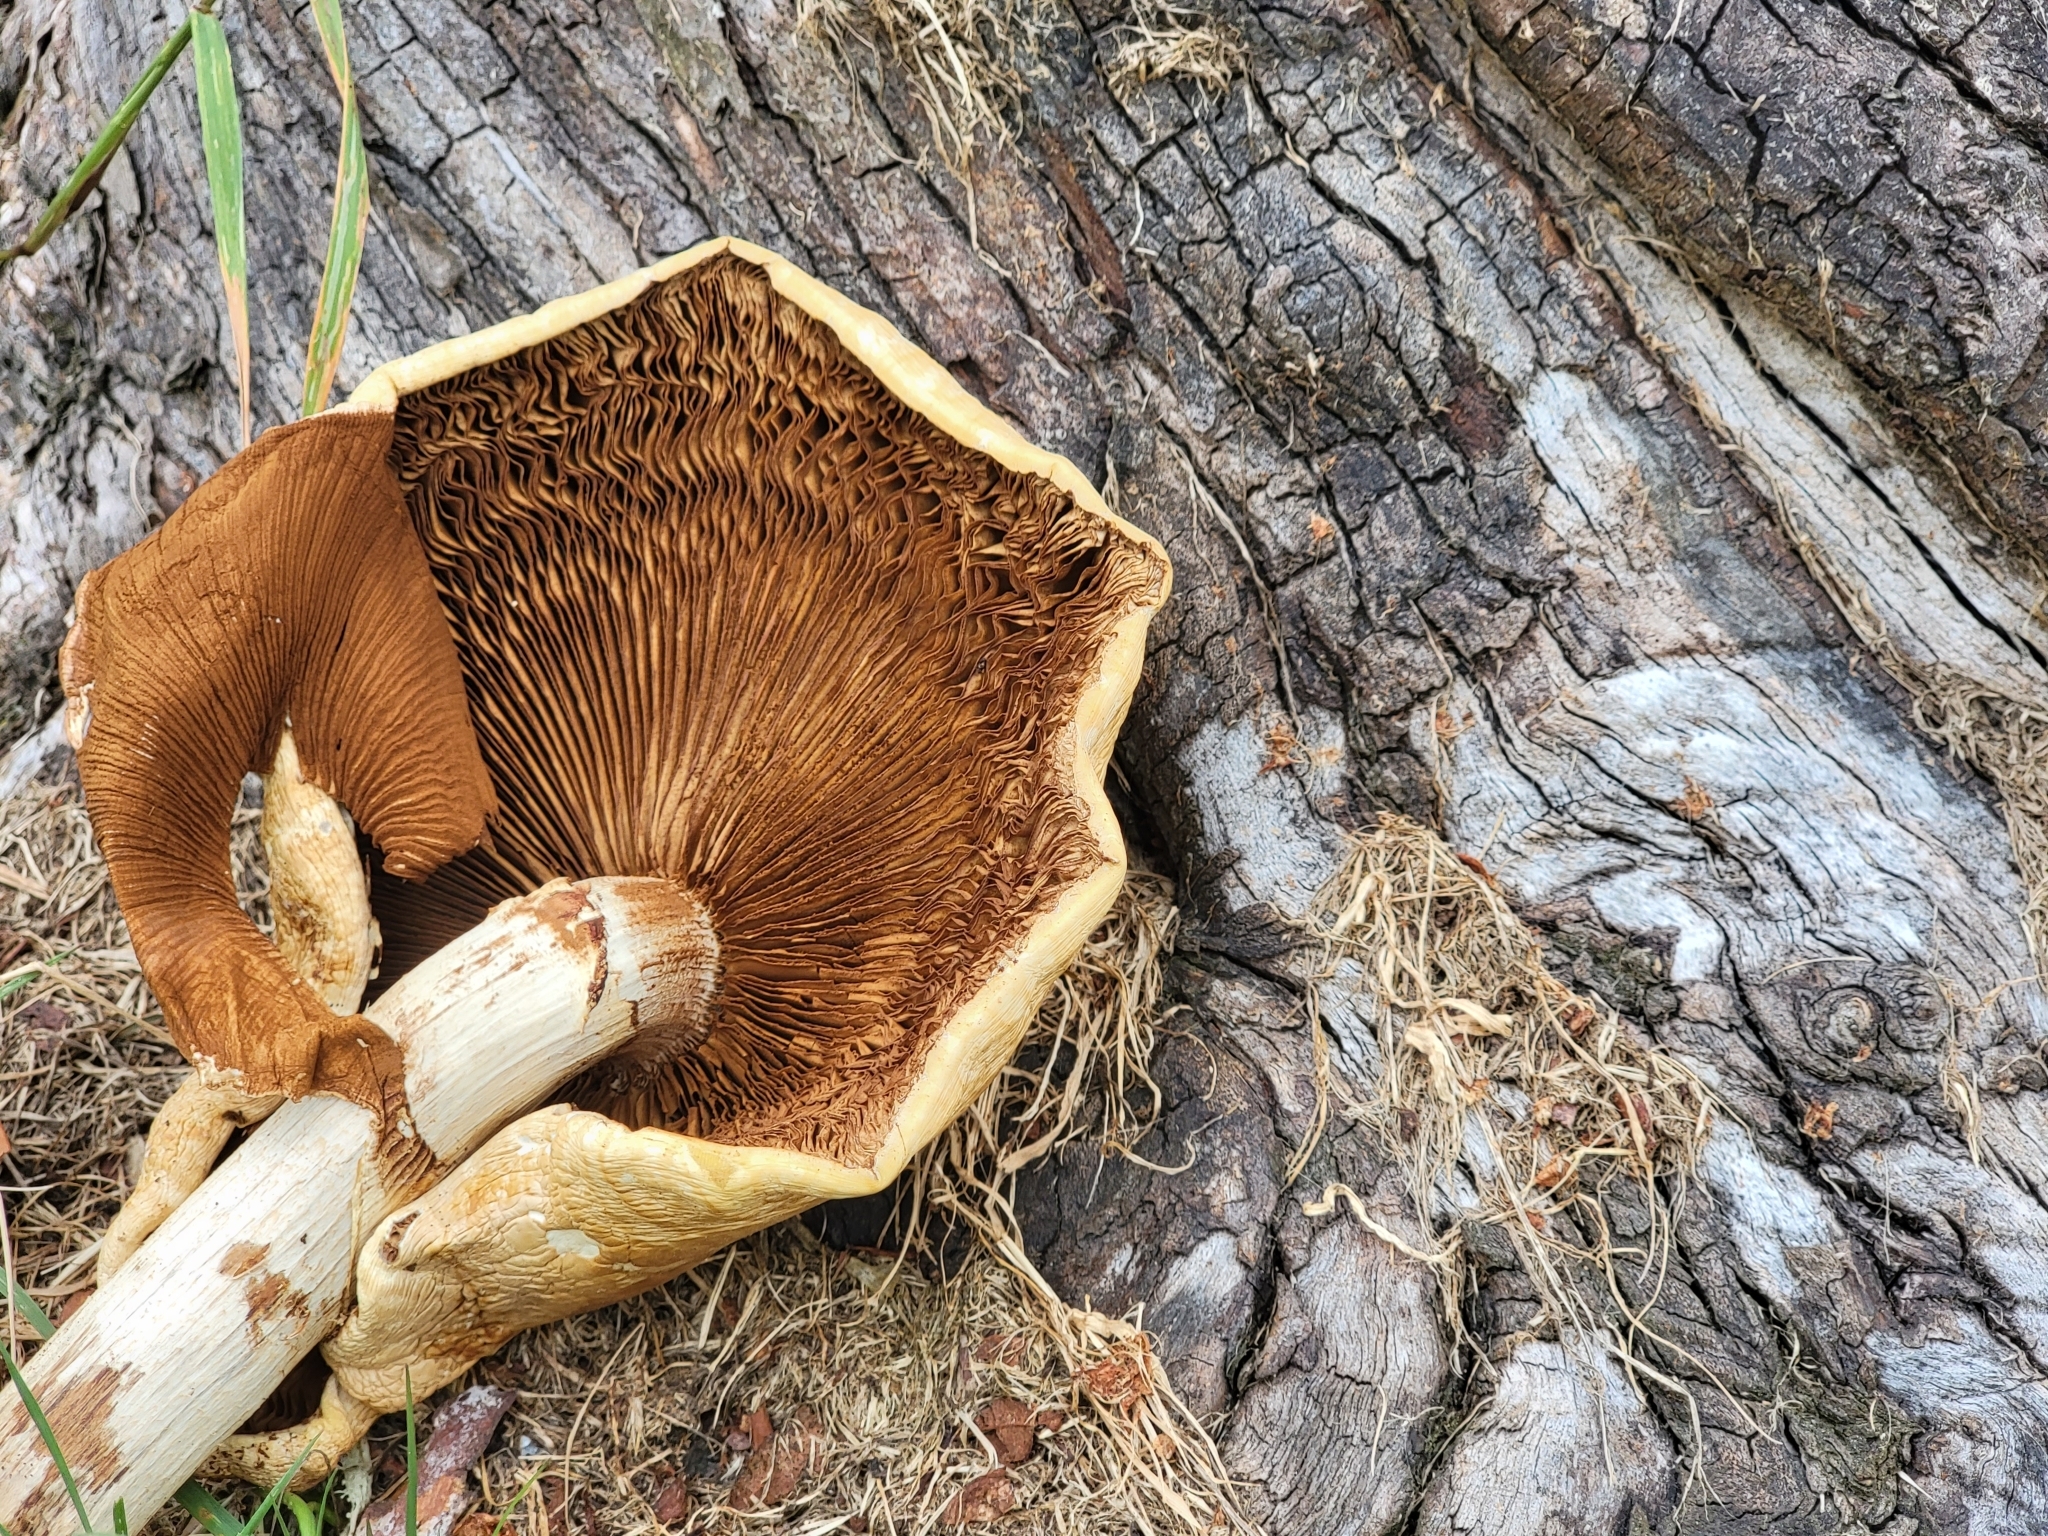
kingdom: Fungi
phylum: Basidiomycota
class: Agaricomycetes
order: Agaricales
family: Tubariaceae
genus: Cyclocybe
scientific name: Cyclocybe parasitica
